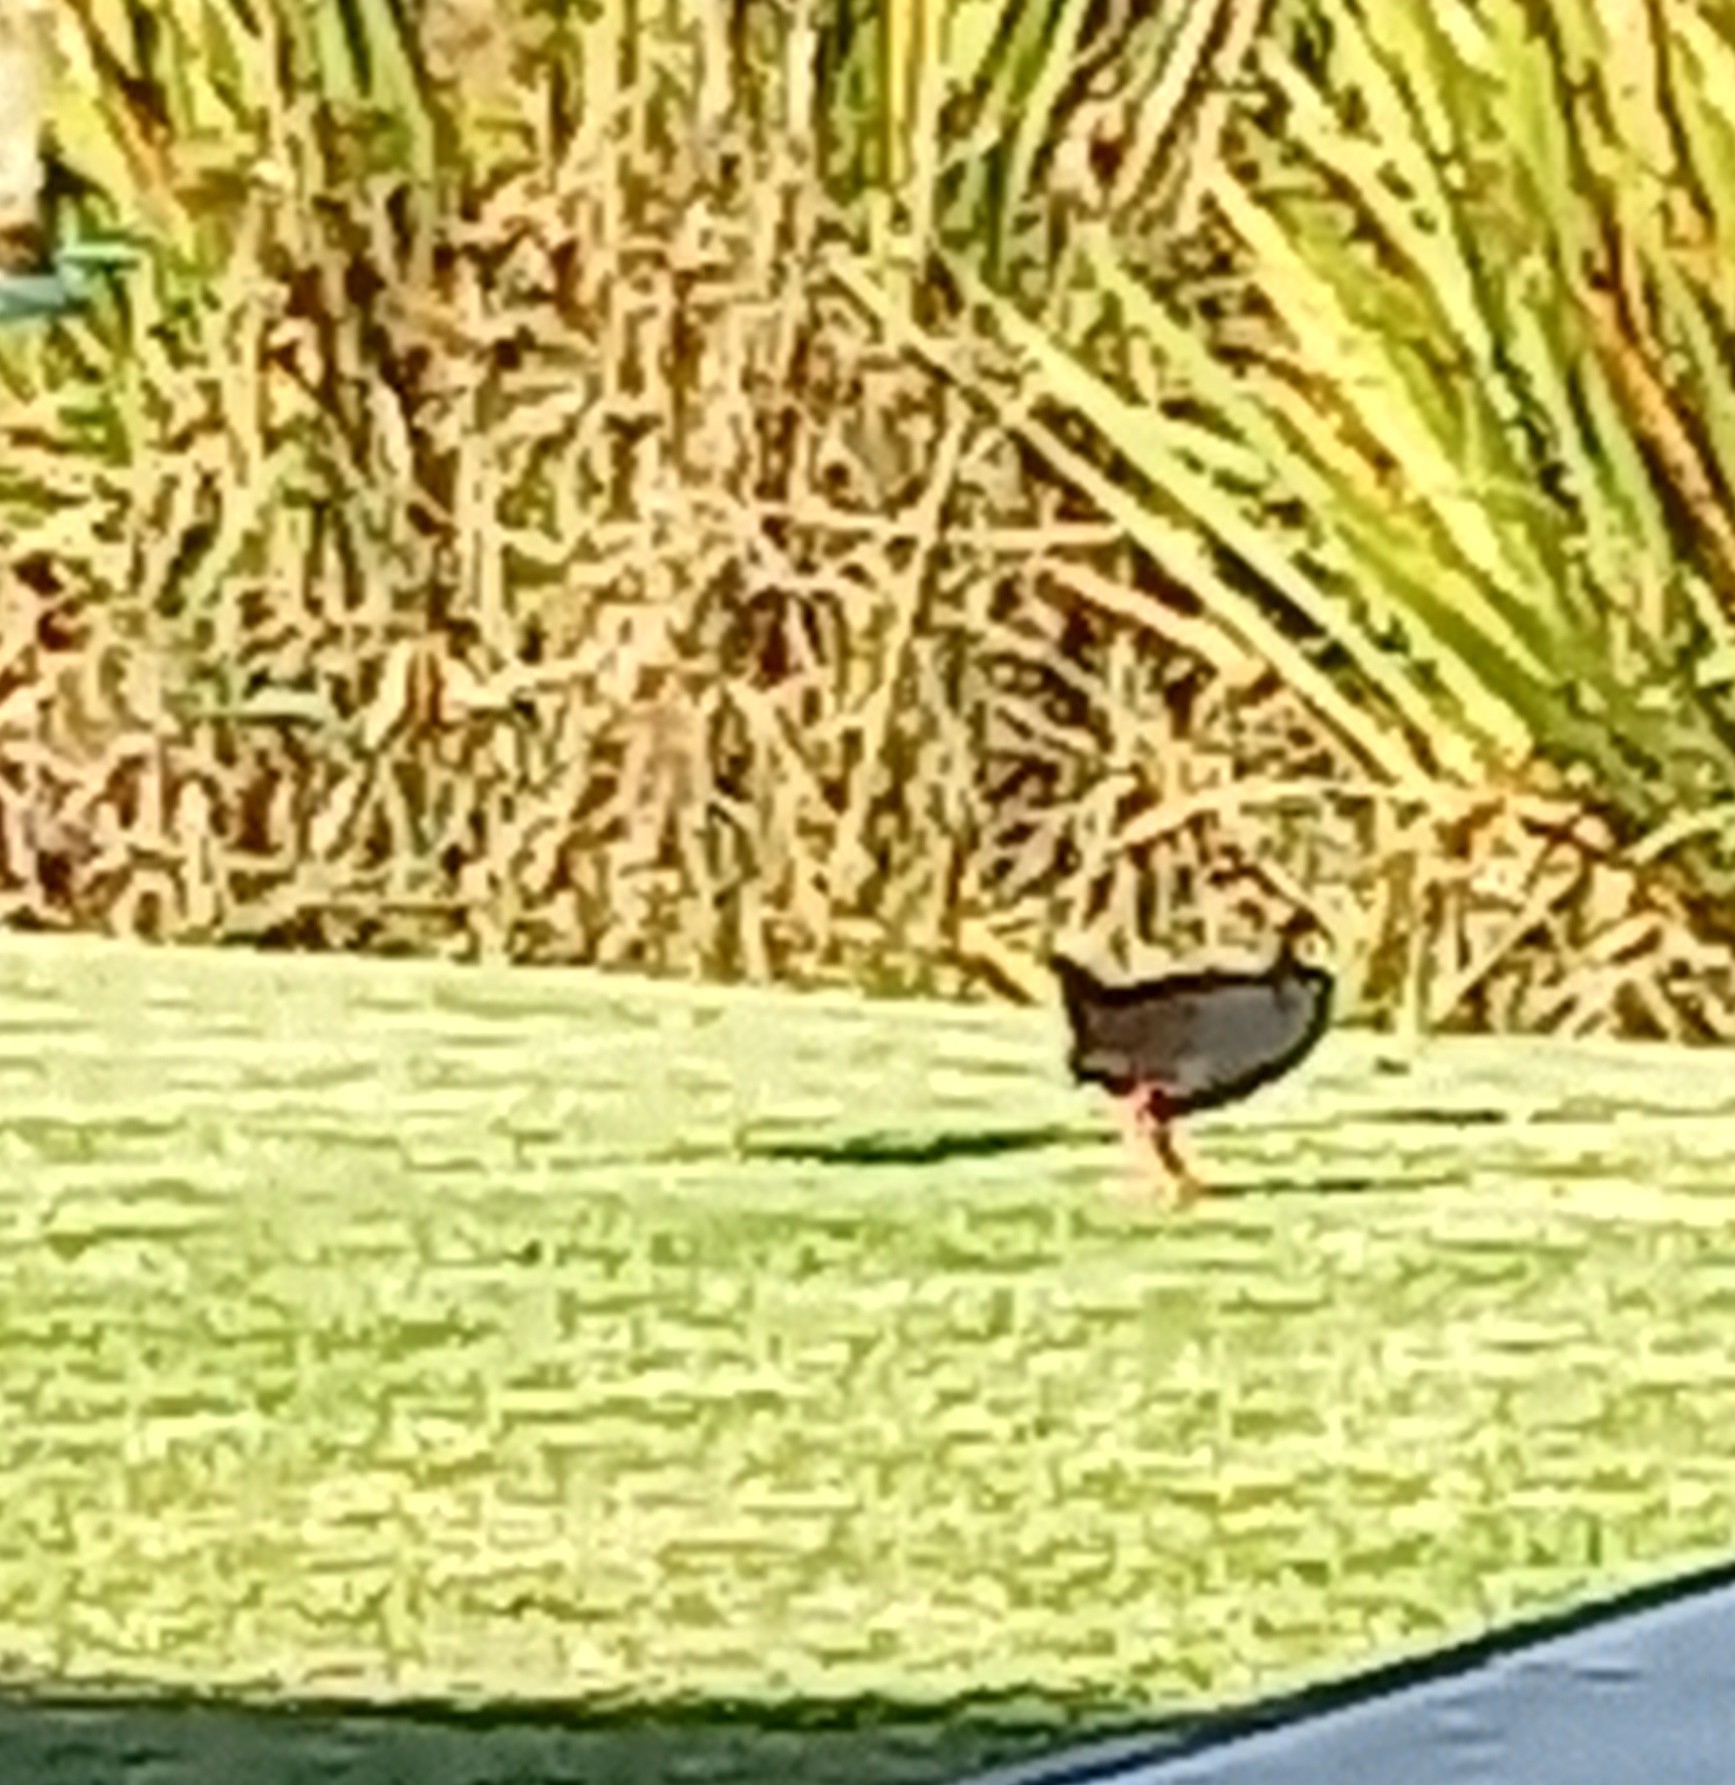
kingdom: Animalia
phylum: Chordata
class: Aves
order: Gruiformes
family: Rallidae
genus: Amaurornis
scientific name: Amaurornis flavirostra
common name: Black crake
